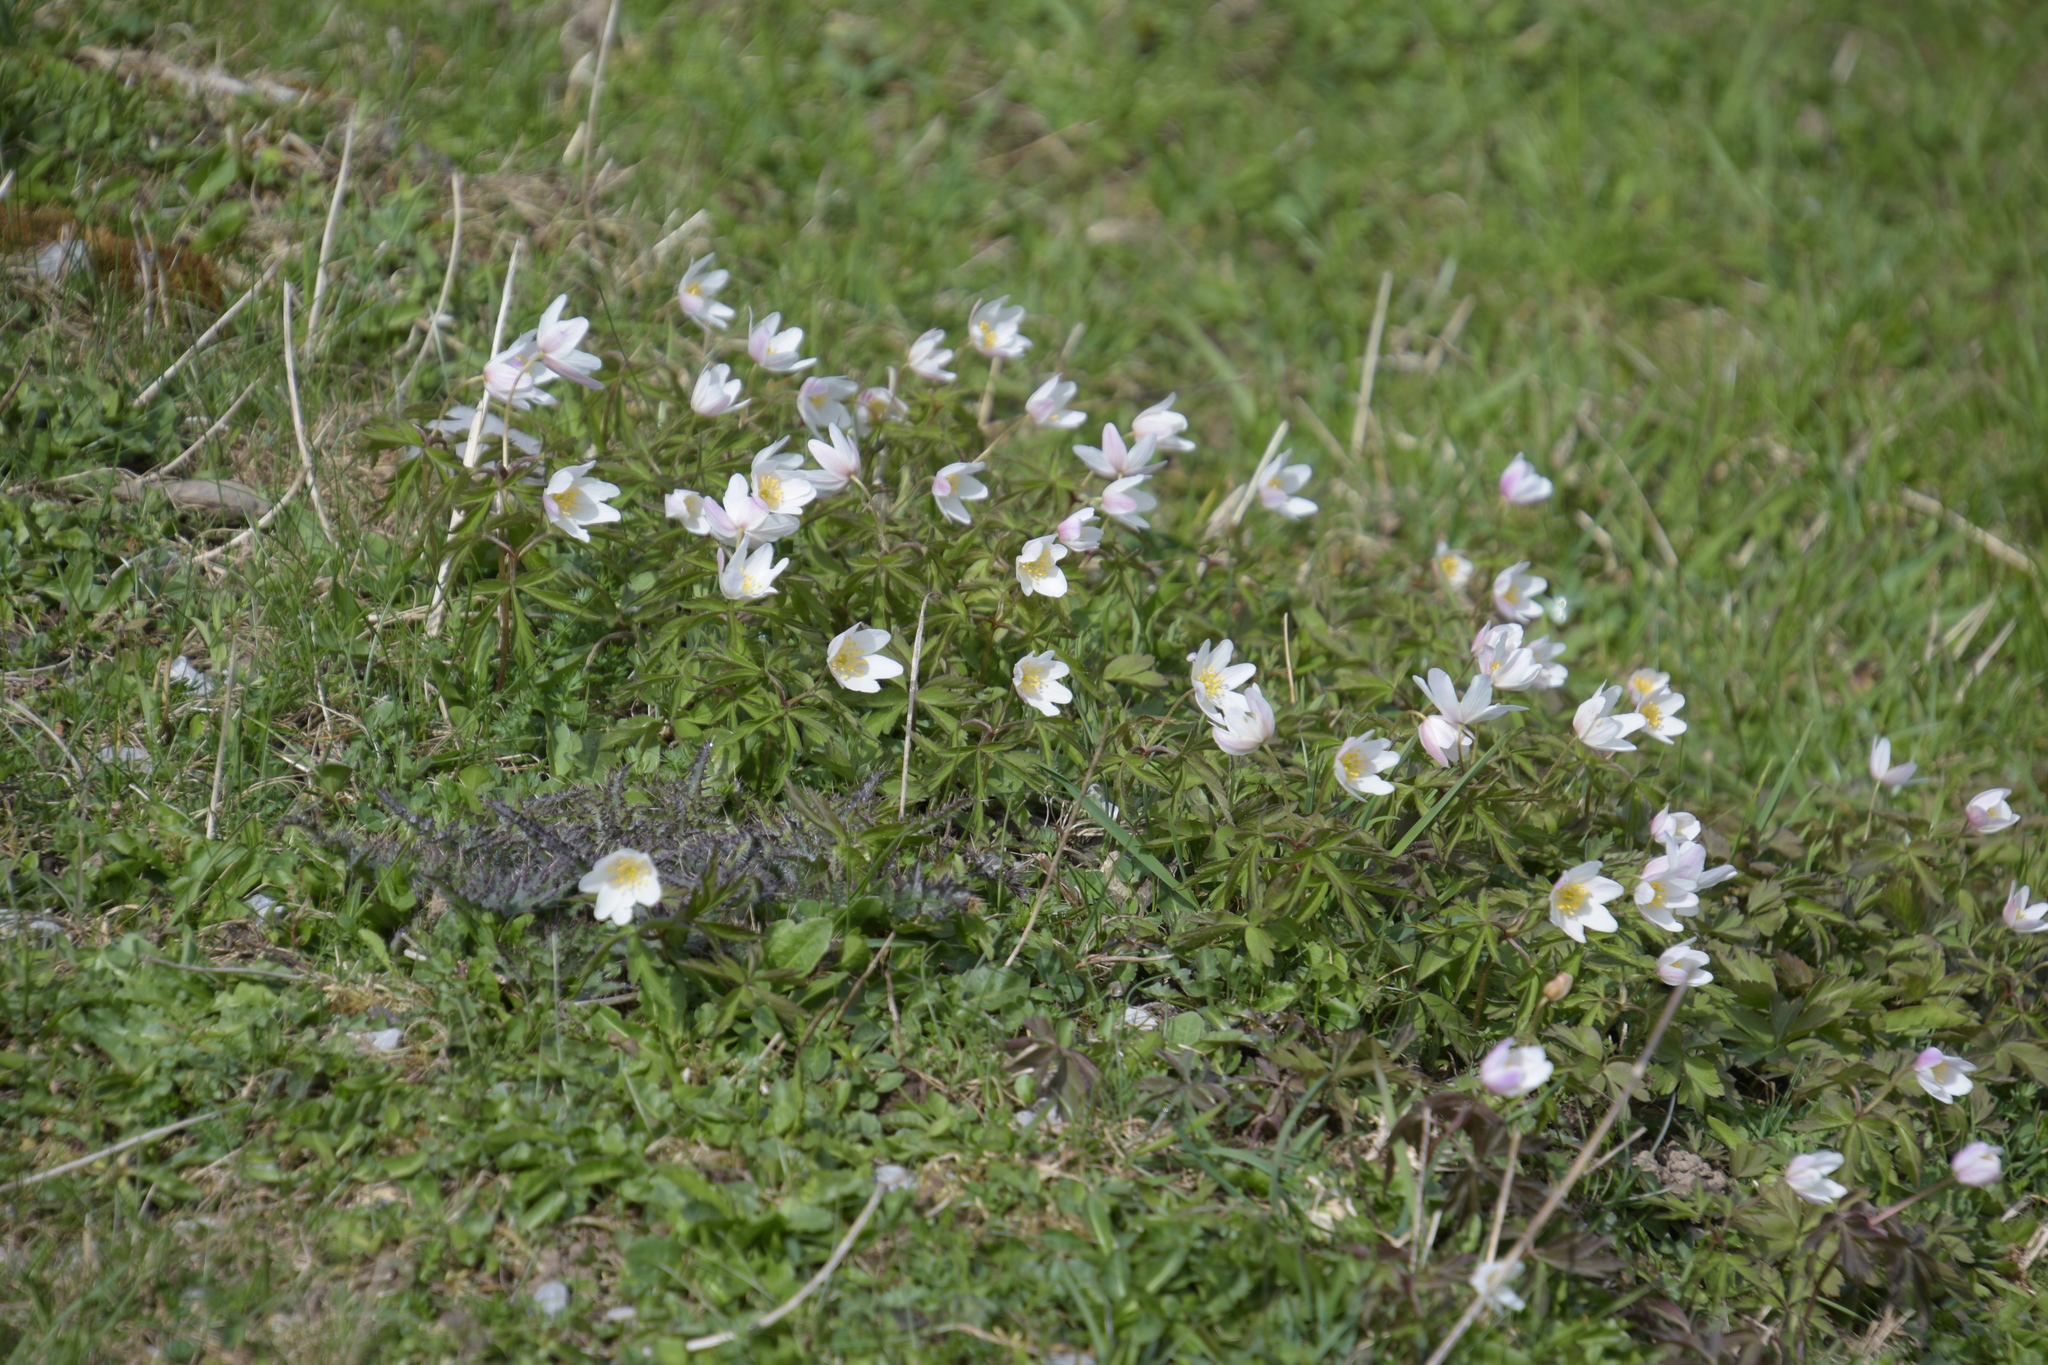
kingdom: Plantae
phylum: Tracheophyta
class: Magnoliopsida
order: Ranunculales
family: Ranunculaceae
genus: Anemone
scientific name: Anemone nemorosa
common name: Wood anemone
